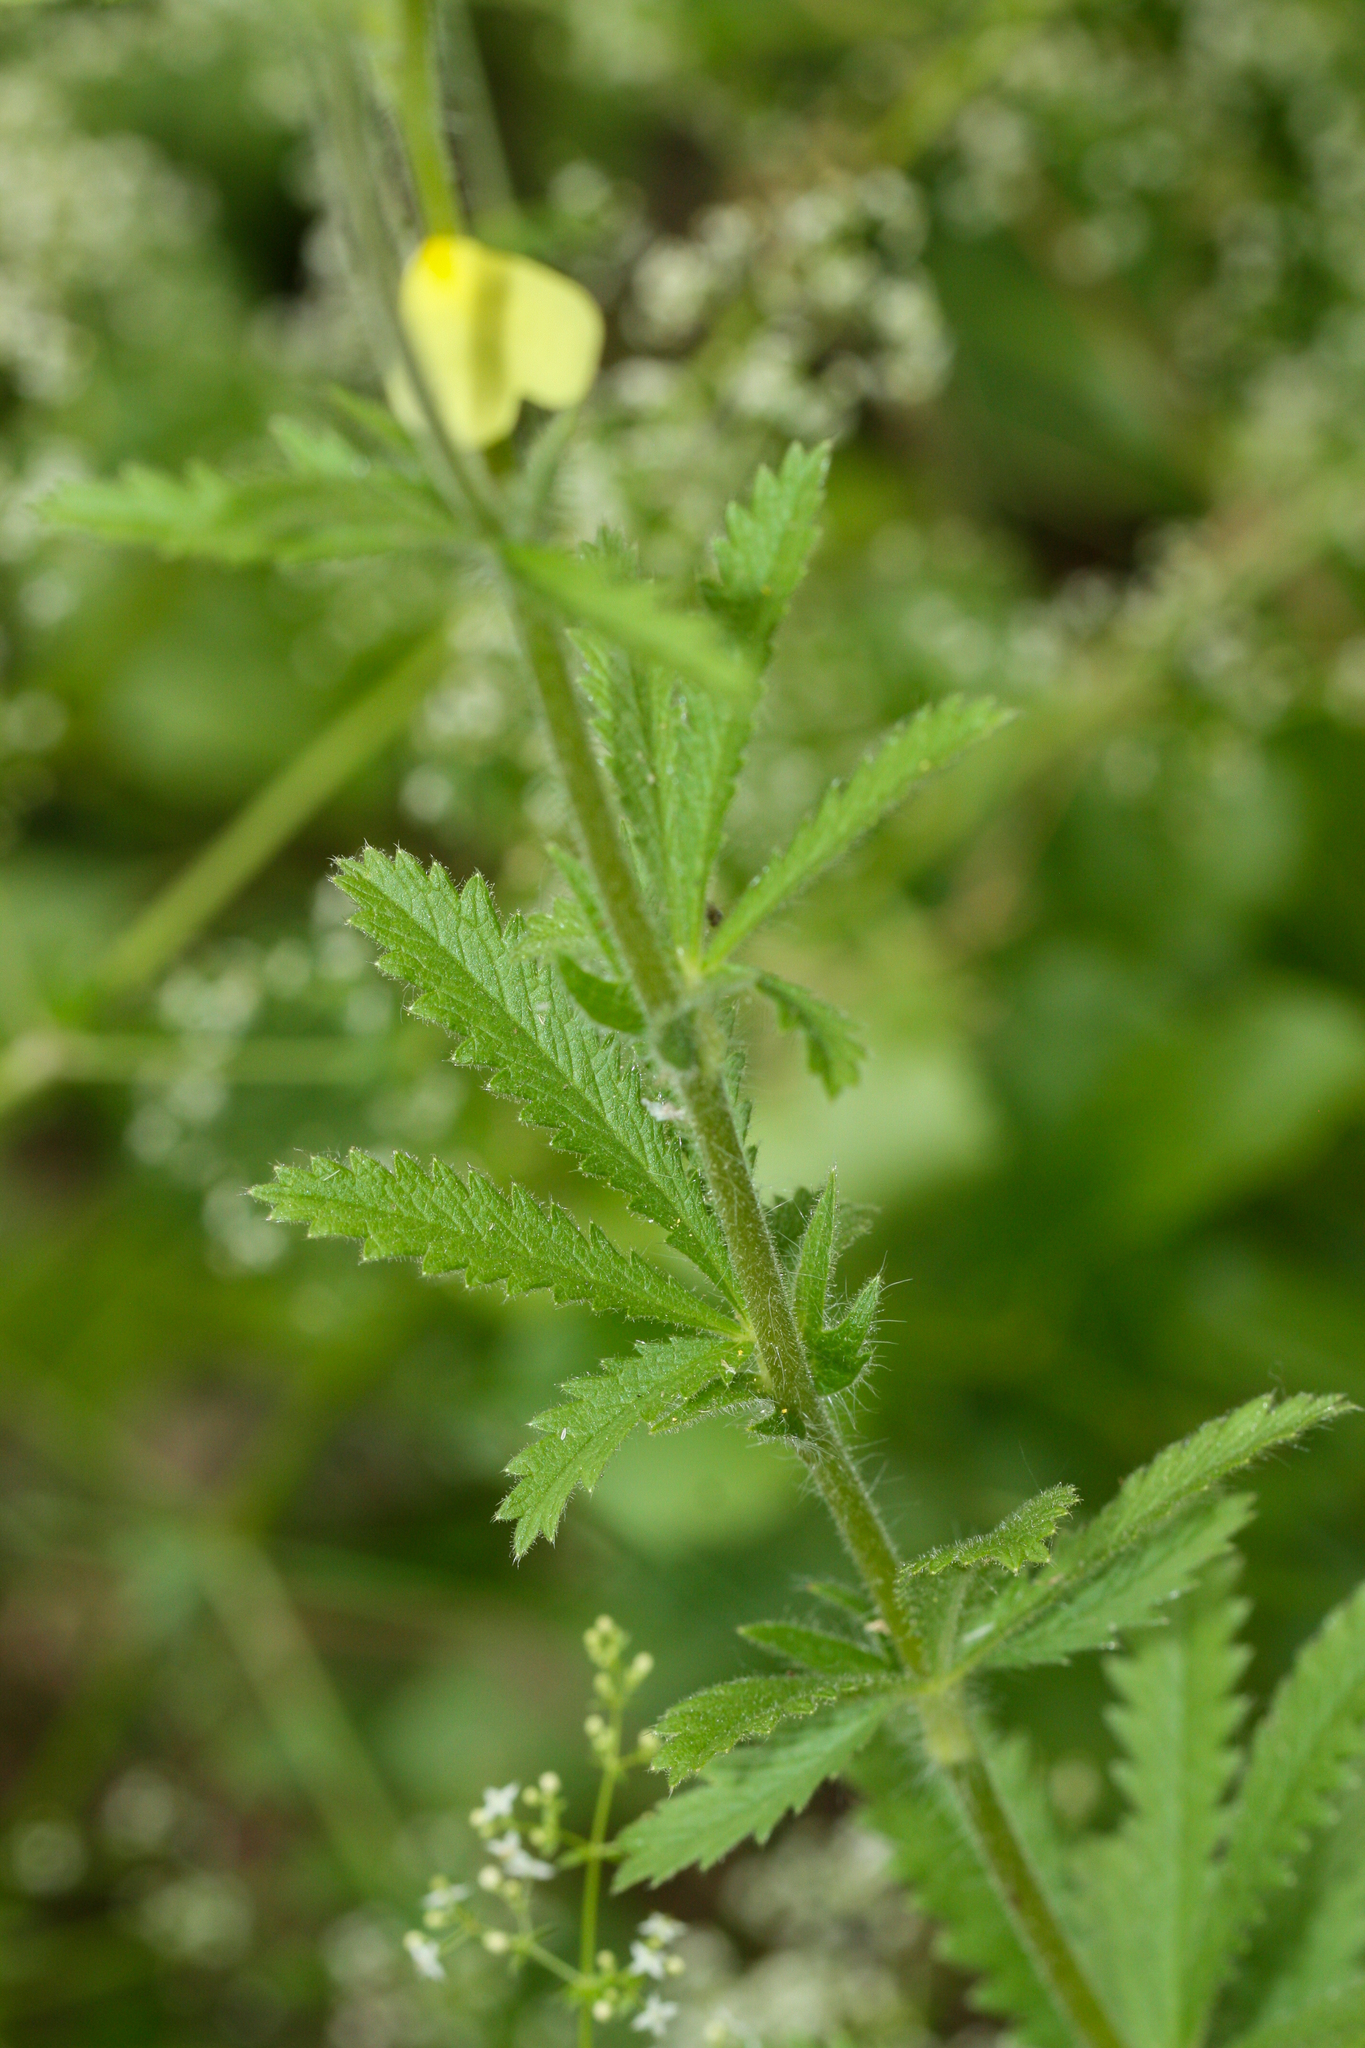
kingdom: Plantae
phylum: Tracheophyta
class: Magnoliopsida
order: Rosales
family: Rosaceae
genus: Potentilla
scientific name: Potentilla recta
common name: Sulphur cinquefoil
